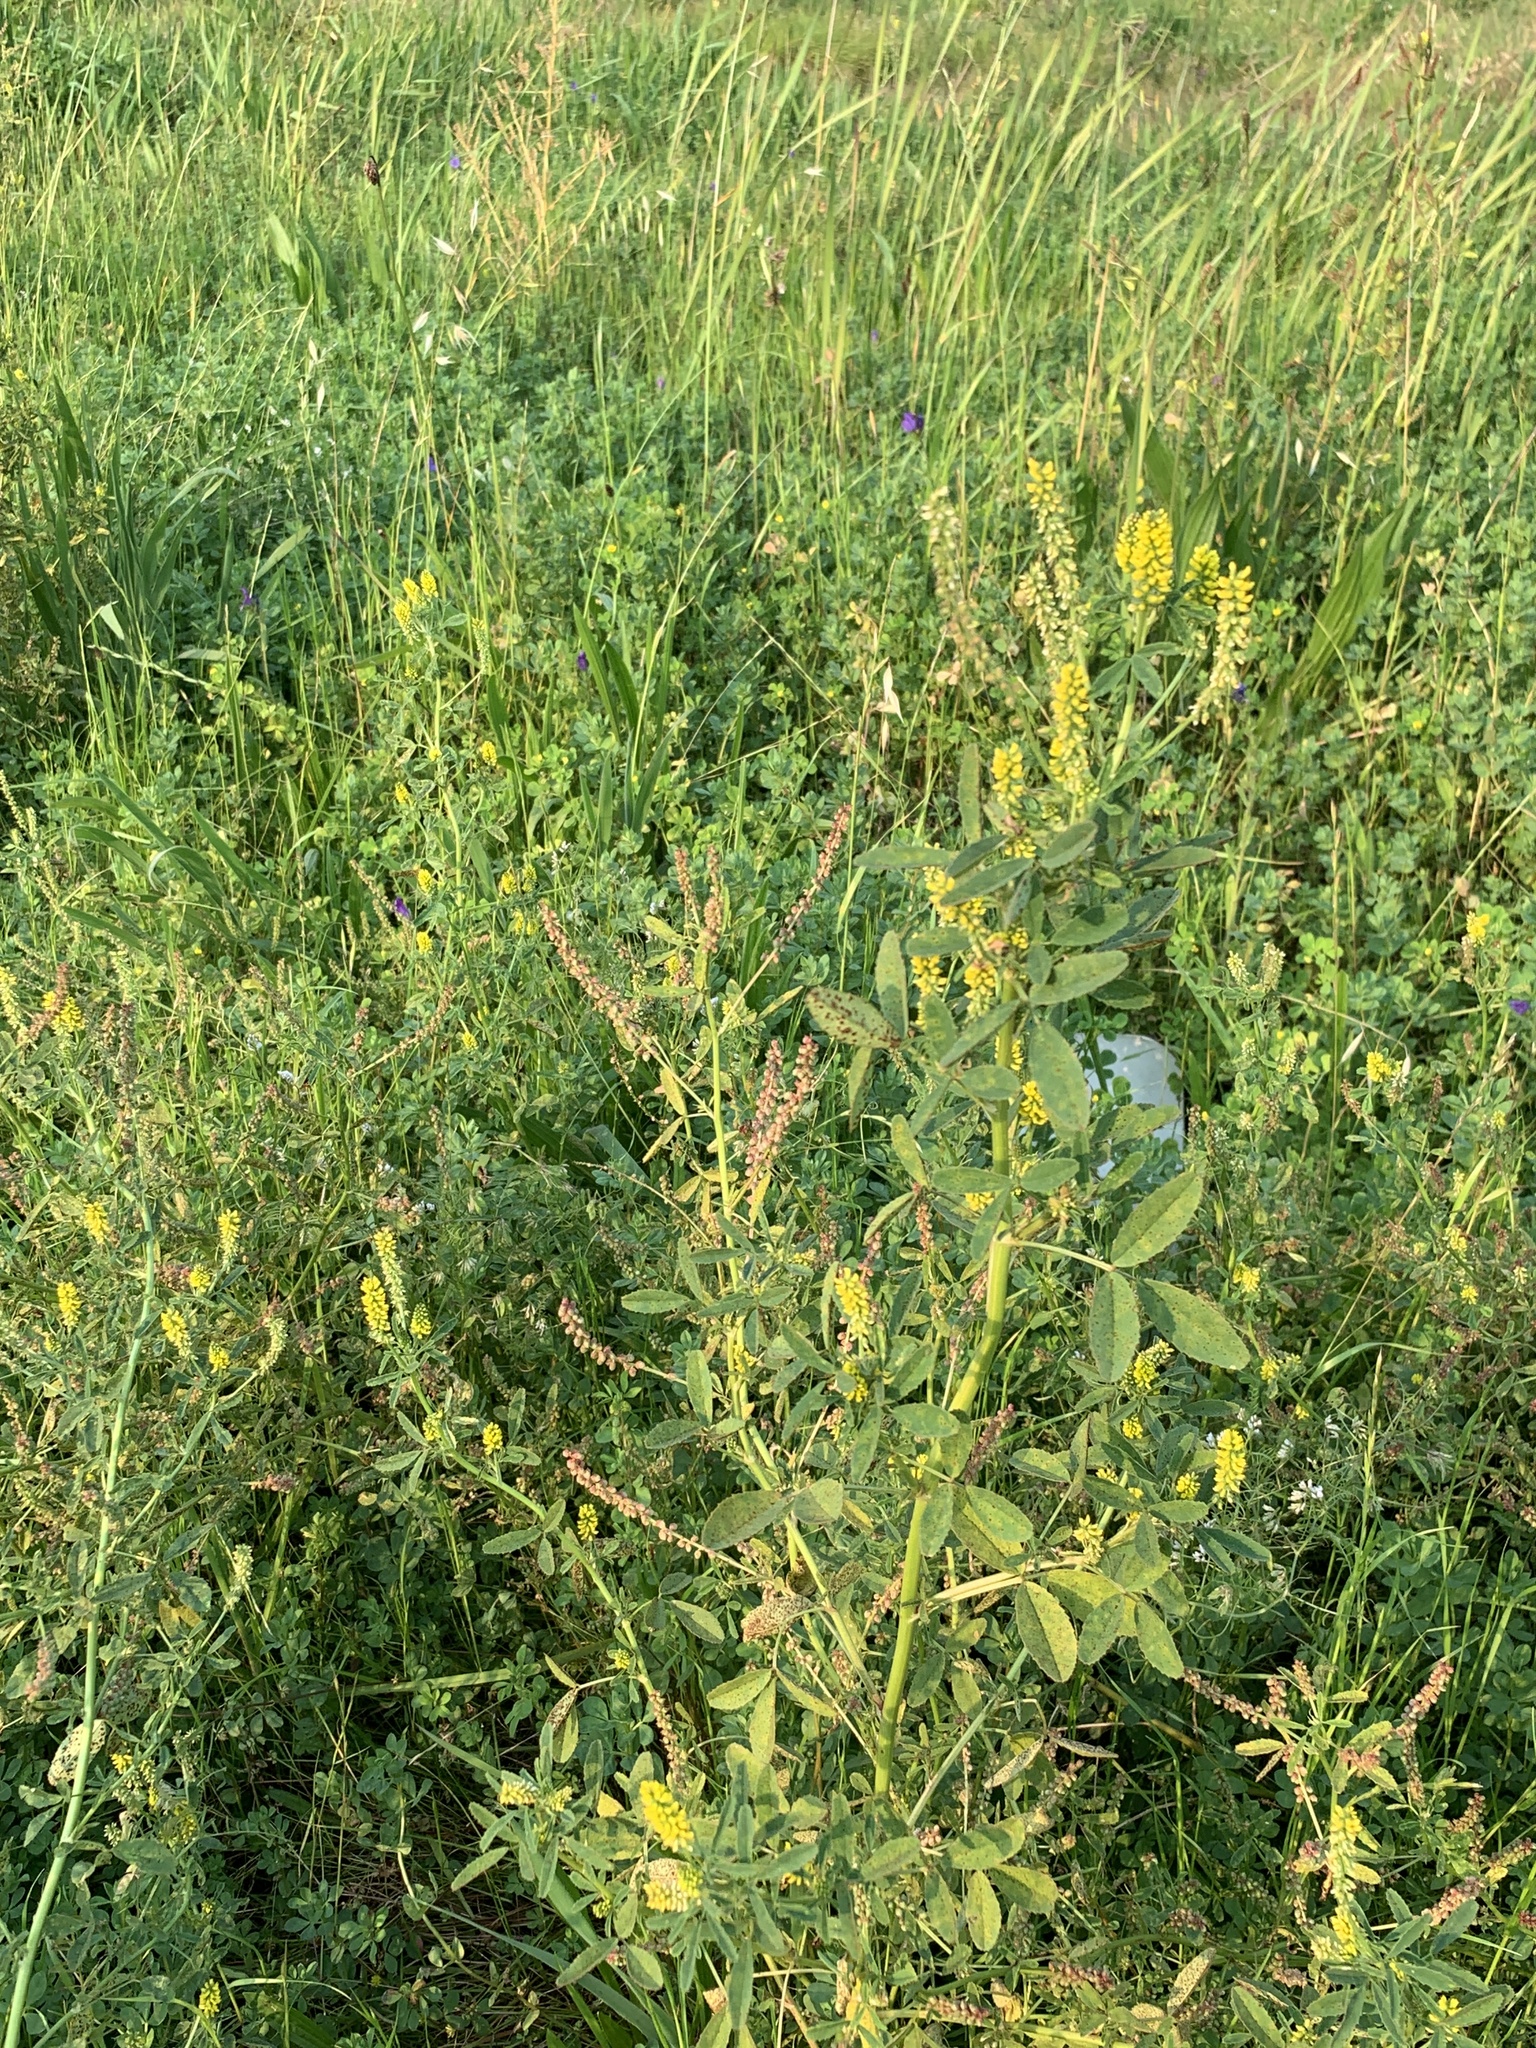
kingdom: Plantae
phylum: Tracheophyta
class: Magnoliopsida
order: Fabales
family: Fabaceae
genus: Melilotus
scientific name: Melilotus indicus
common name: Small melilot
